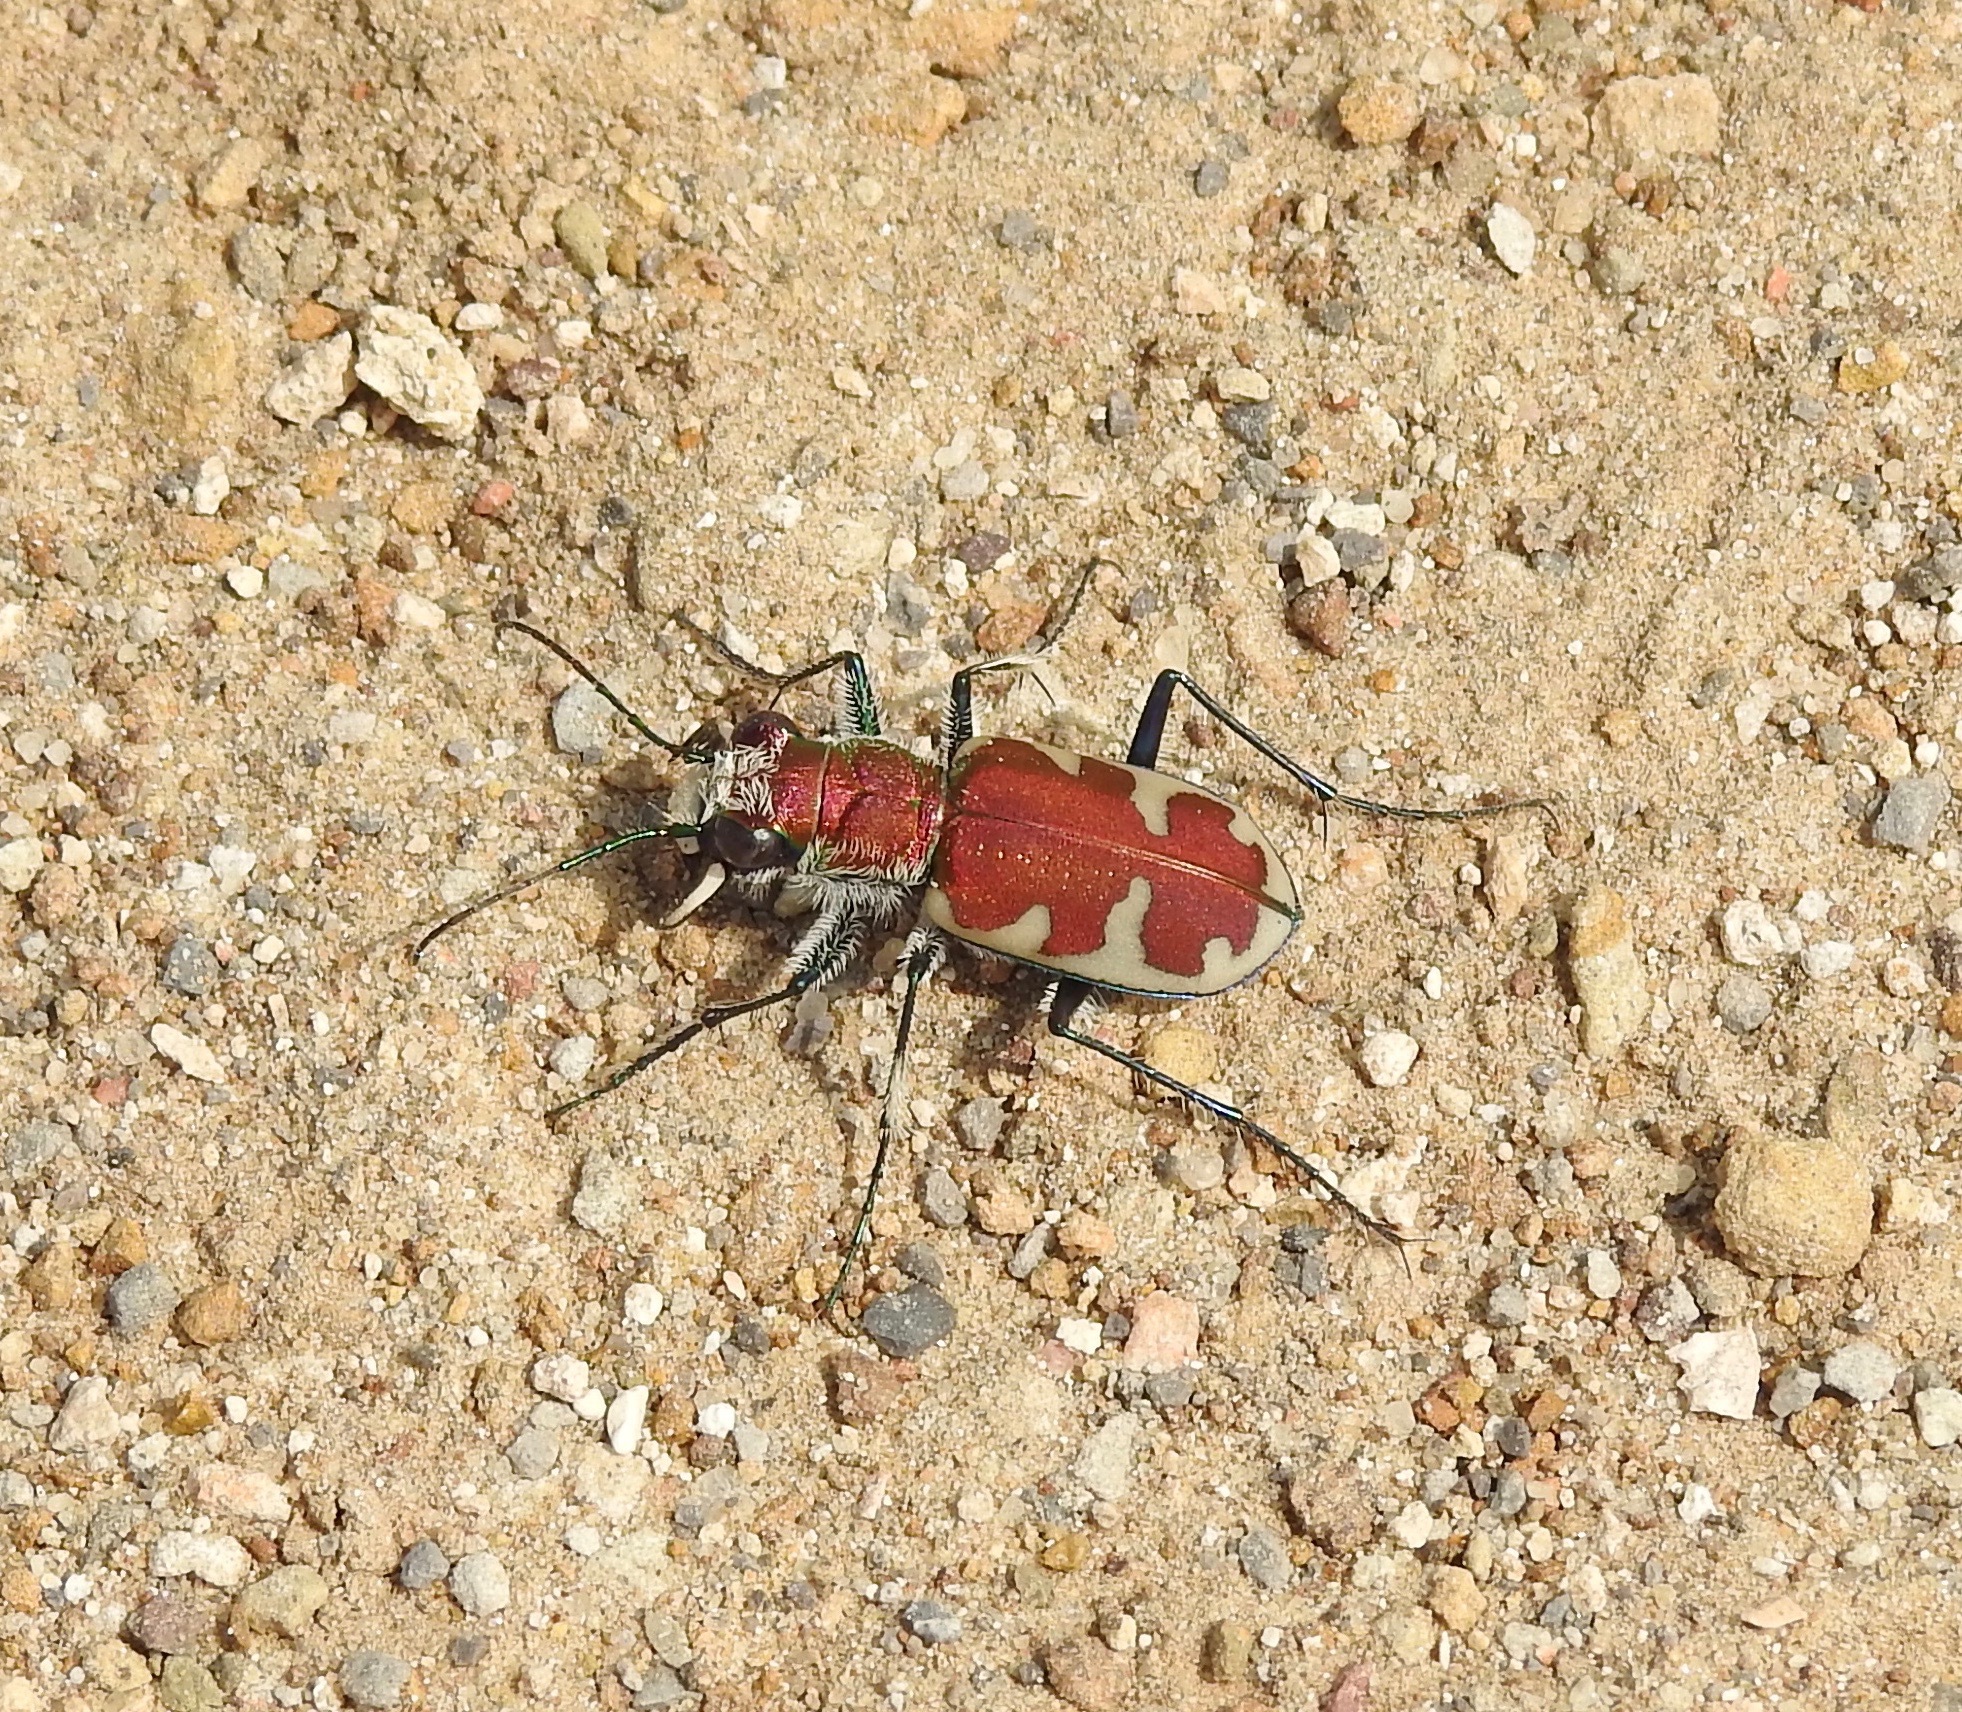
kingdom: Animalia
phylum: Arthropoda
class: Insecta
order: Coleoptera
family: Carabidae
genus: Cicindela
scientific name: Cicindela formosa
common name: Big sand tiger beetle
